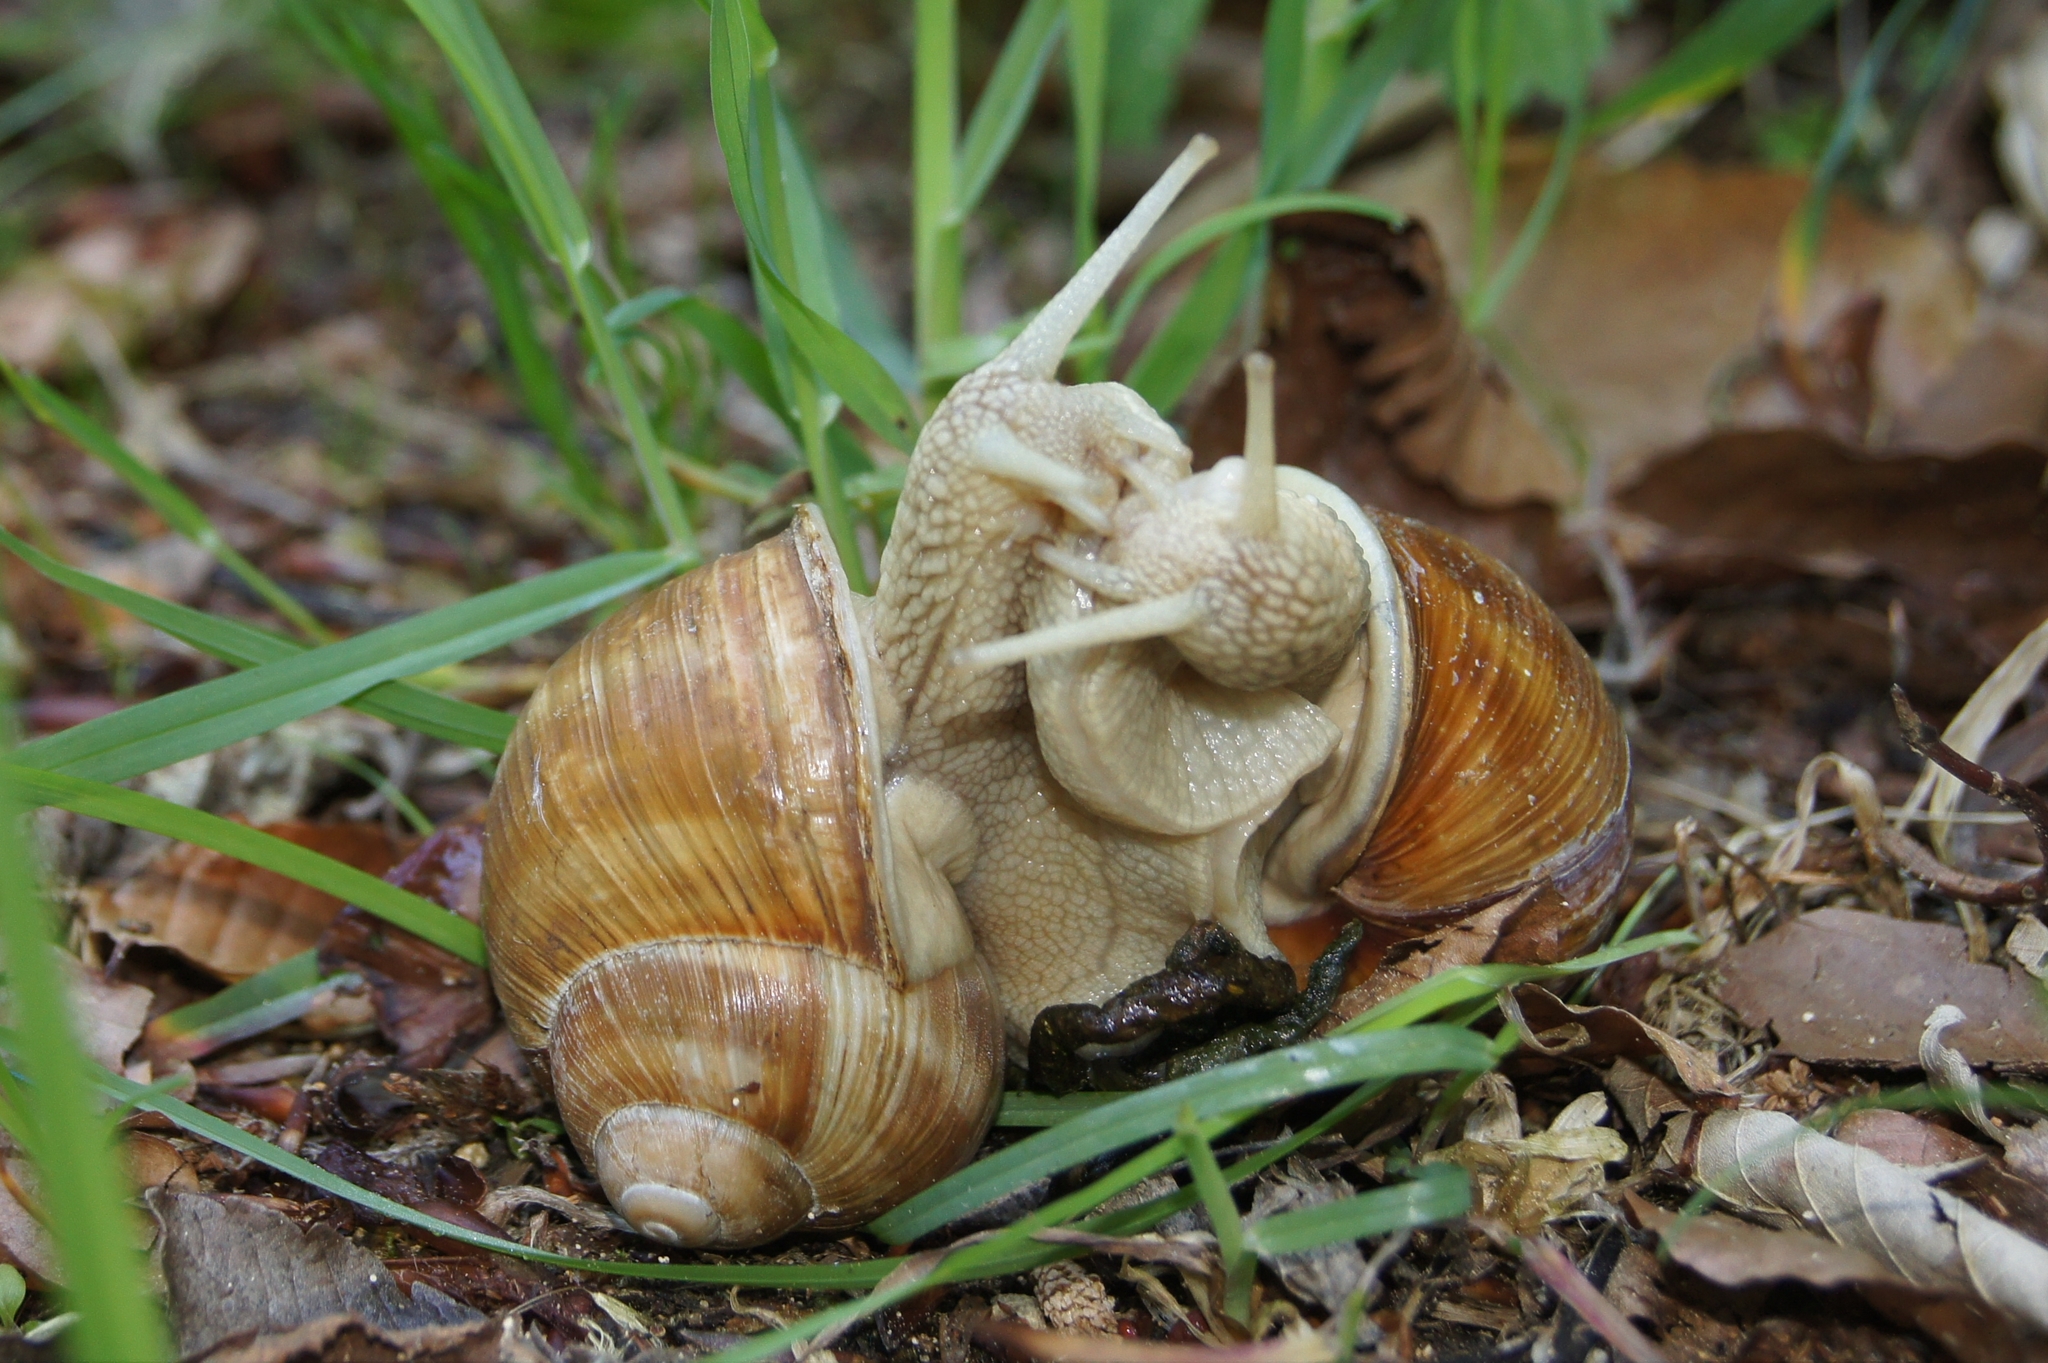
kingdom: Animalia
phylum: Mollusca
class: Gastropoda
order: Stylommatophora
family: Helicidae
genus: Helix
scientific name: Helix pomatia
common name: Roman snail
